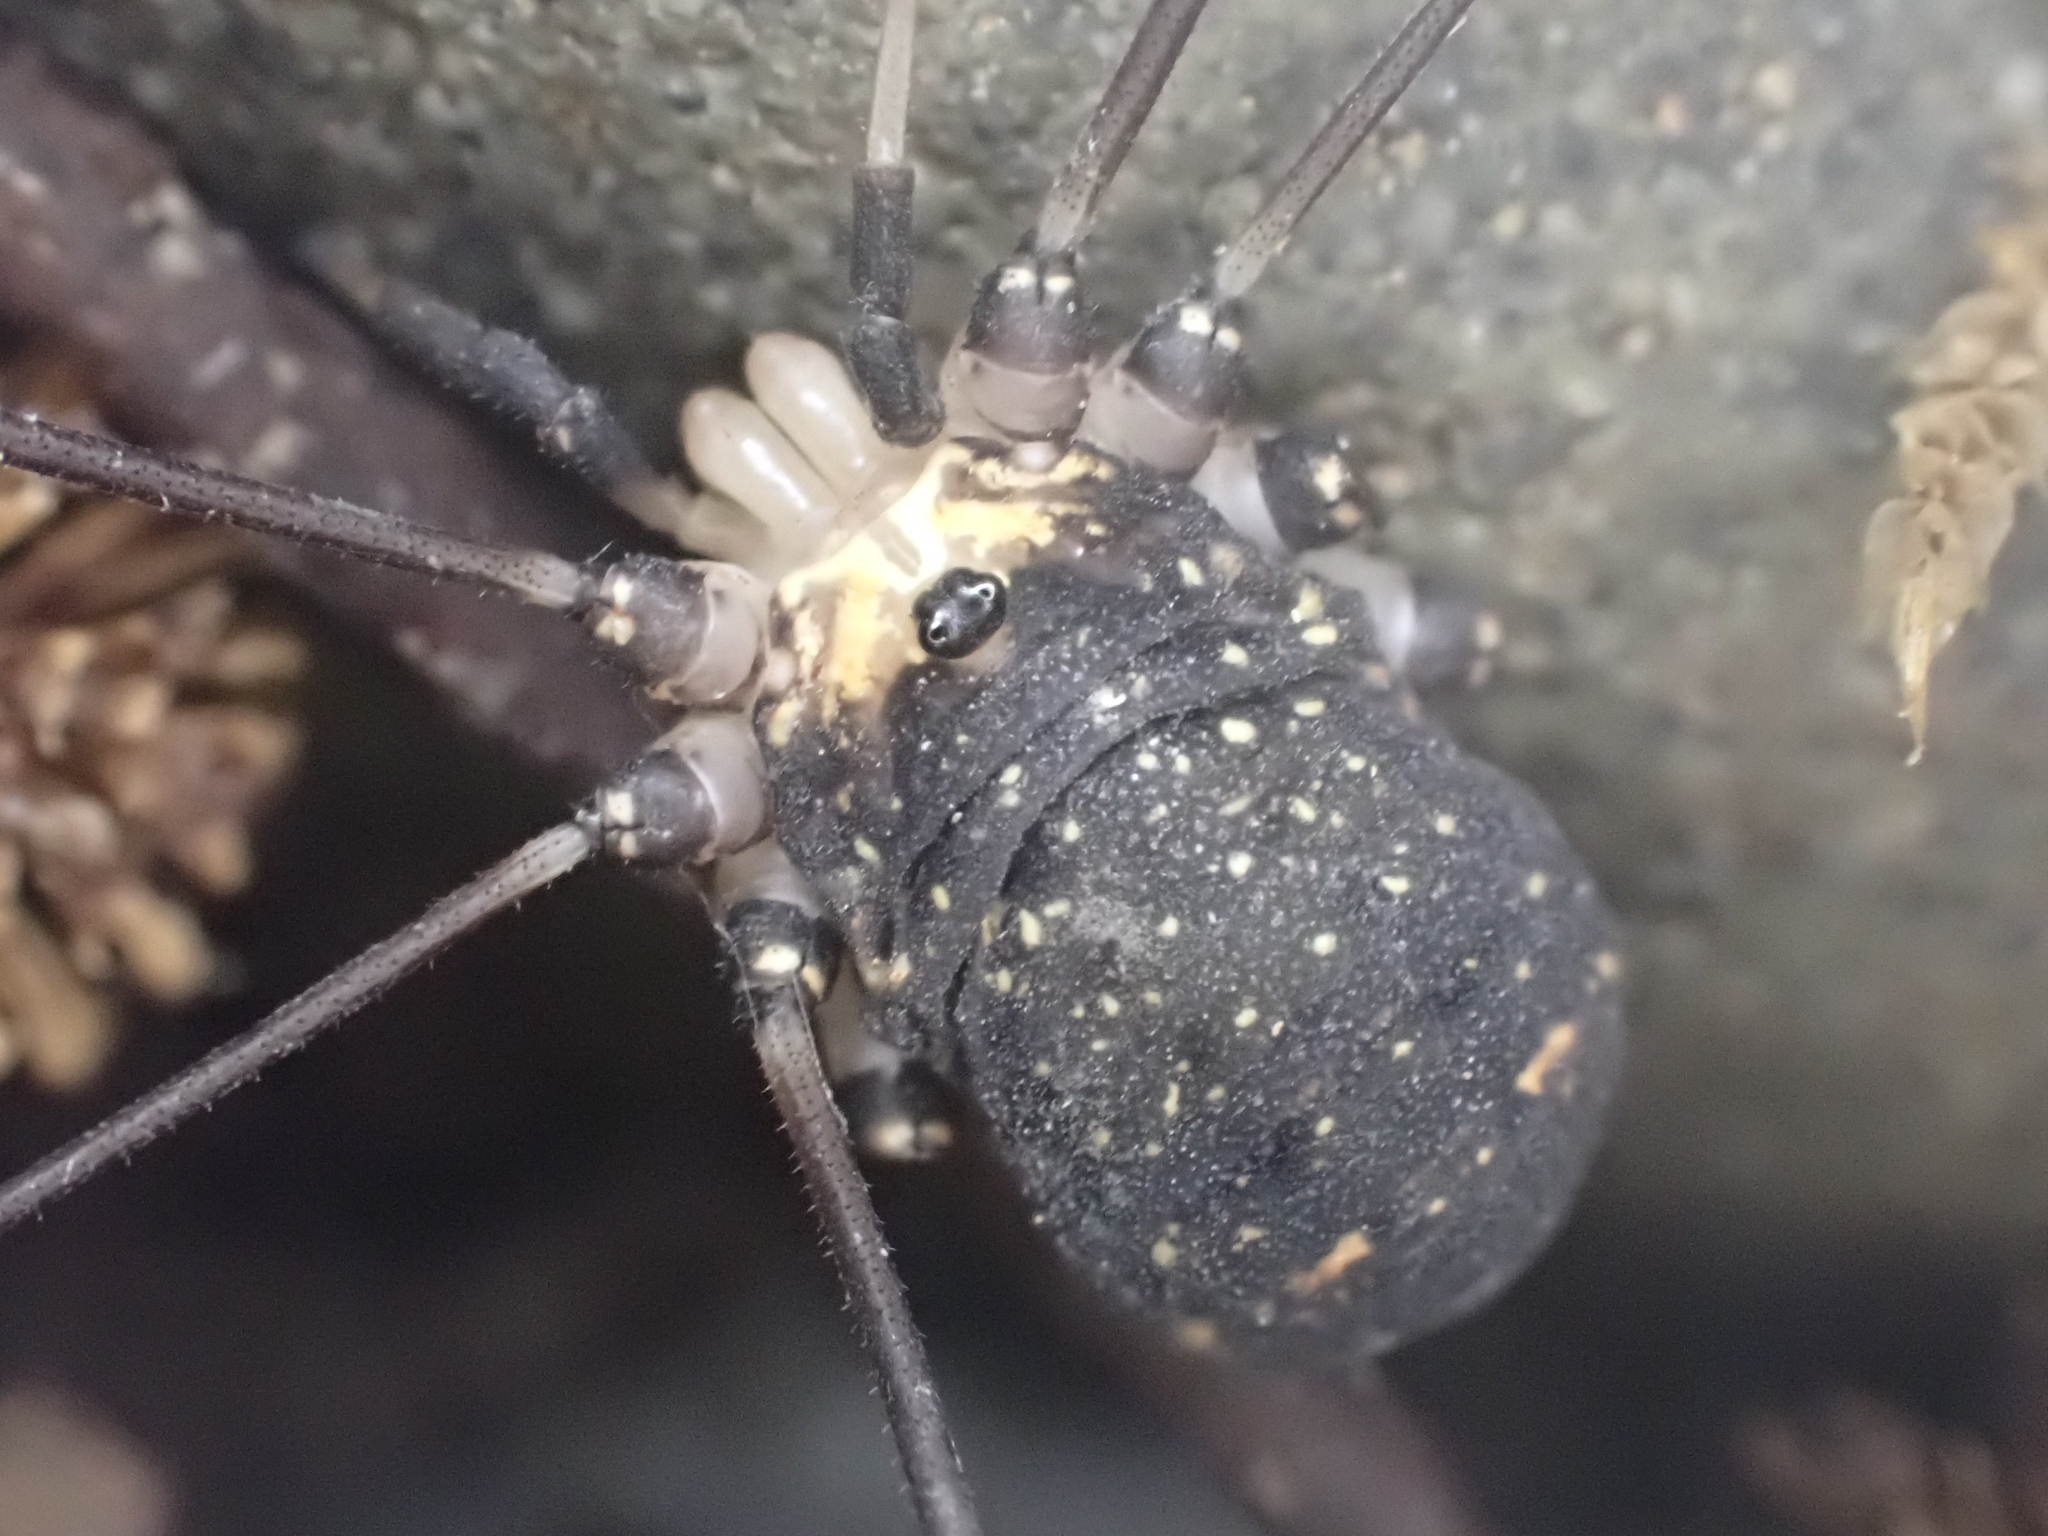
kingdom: Animalia
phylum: Arthropoda
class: Arachnida
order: Opiliones
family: Sclerosomatidae
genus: Leiobunum
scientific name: Leiobunum exilipes
